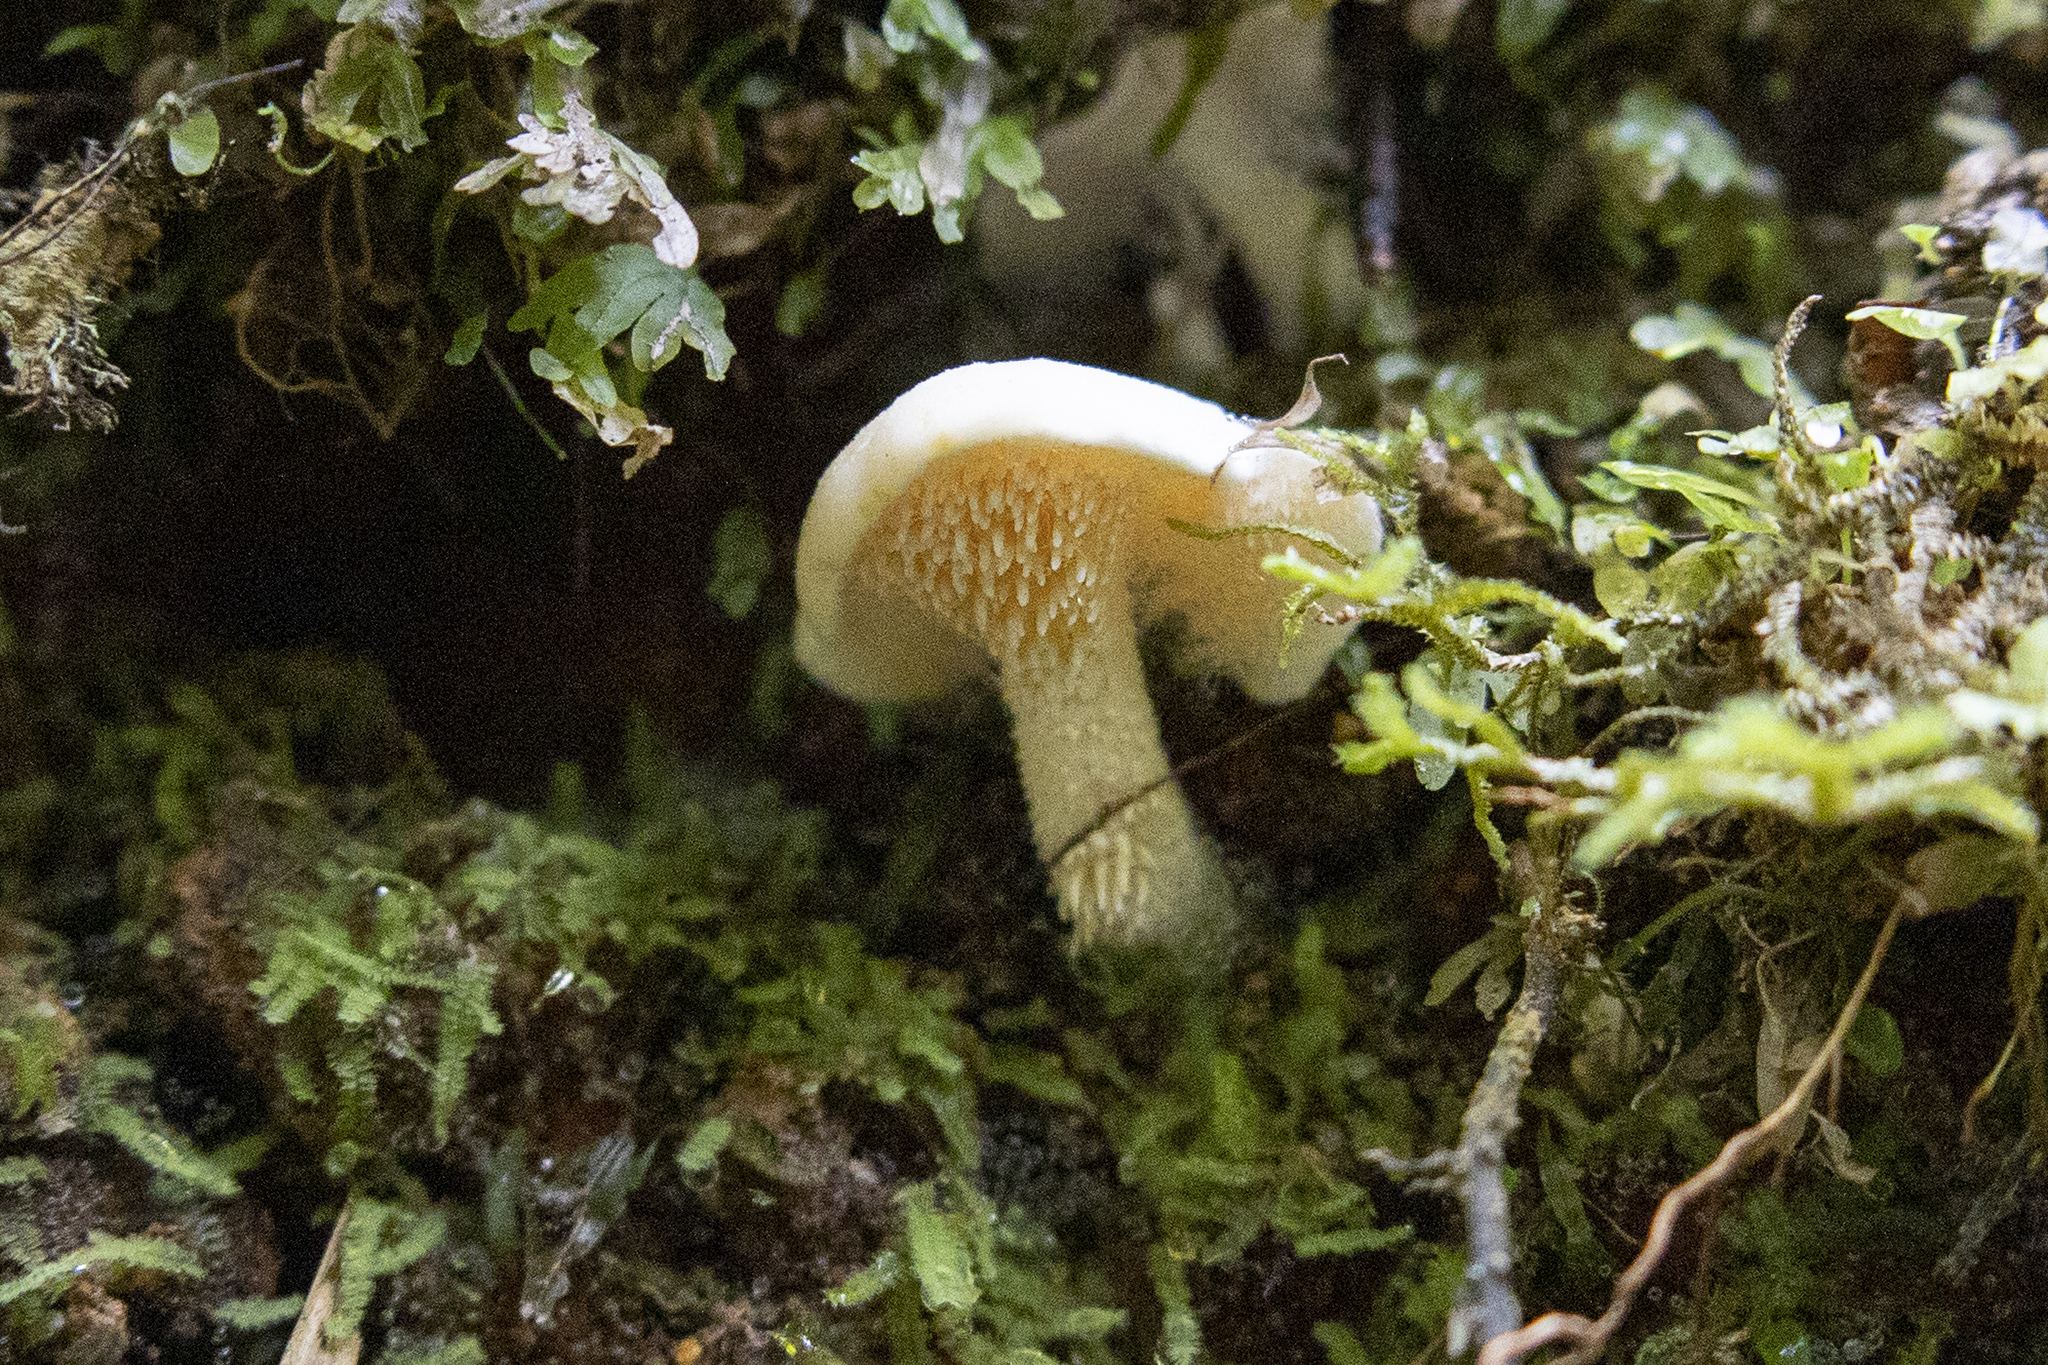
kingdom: Fungi
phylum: Basidiomycota
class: Agaricomycetes
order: Cantharellales
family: Hydnaceae
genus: Hydnum
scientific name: Hydnum ambustum
